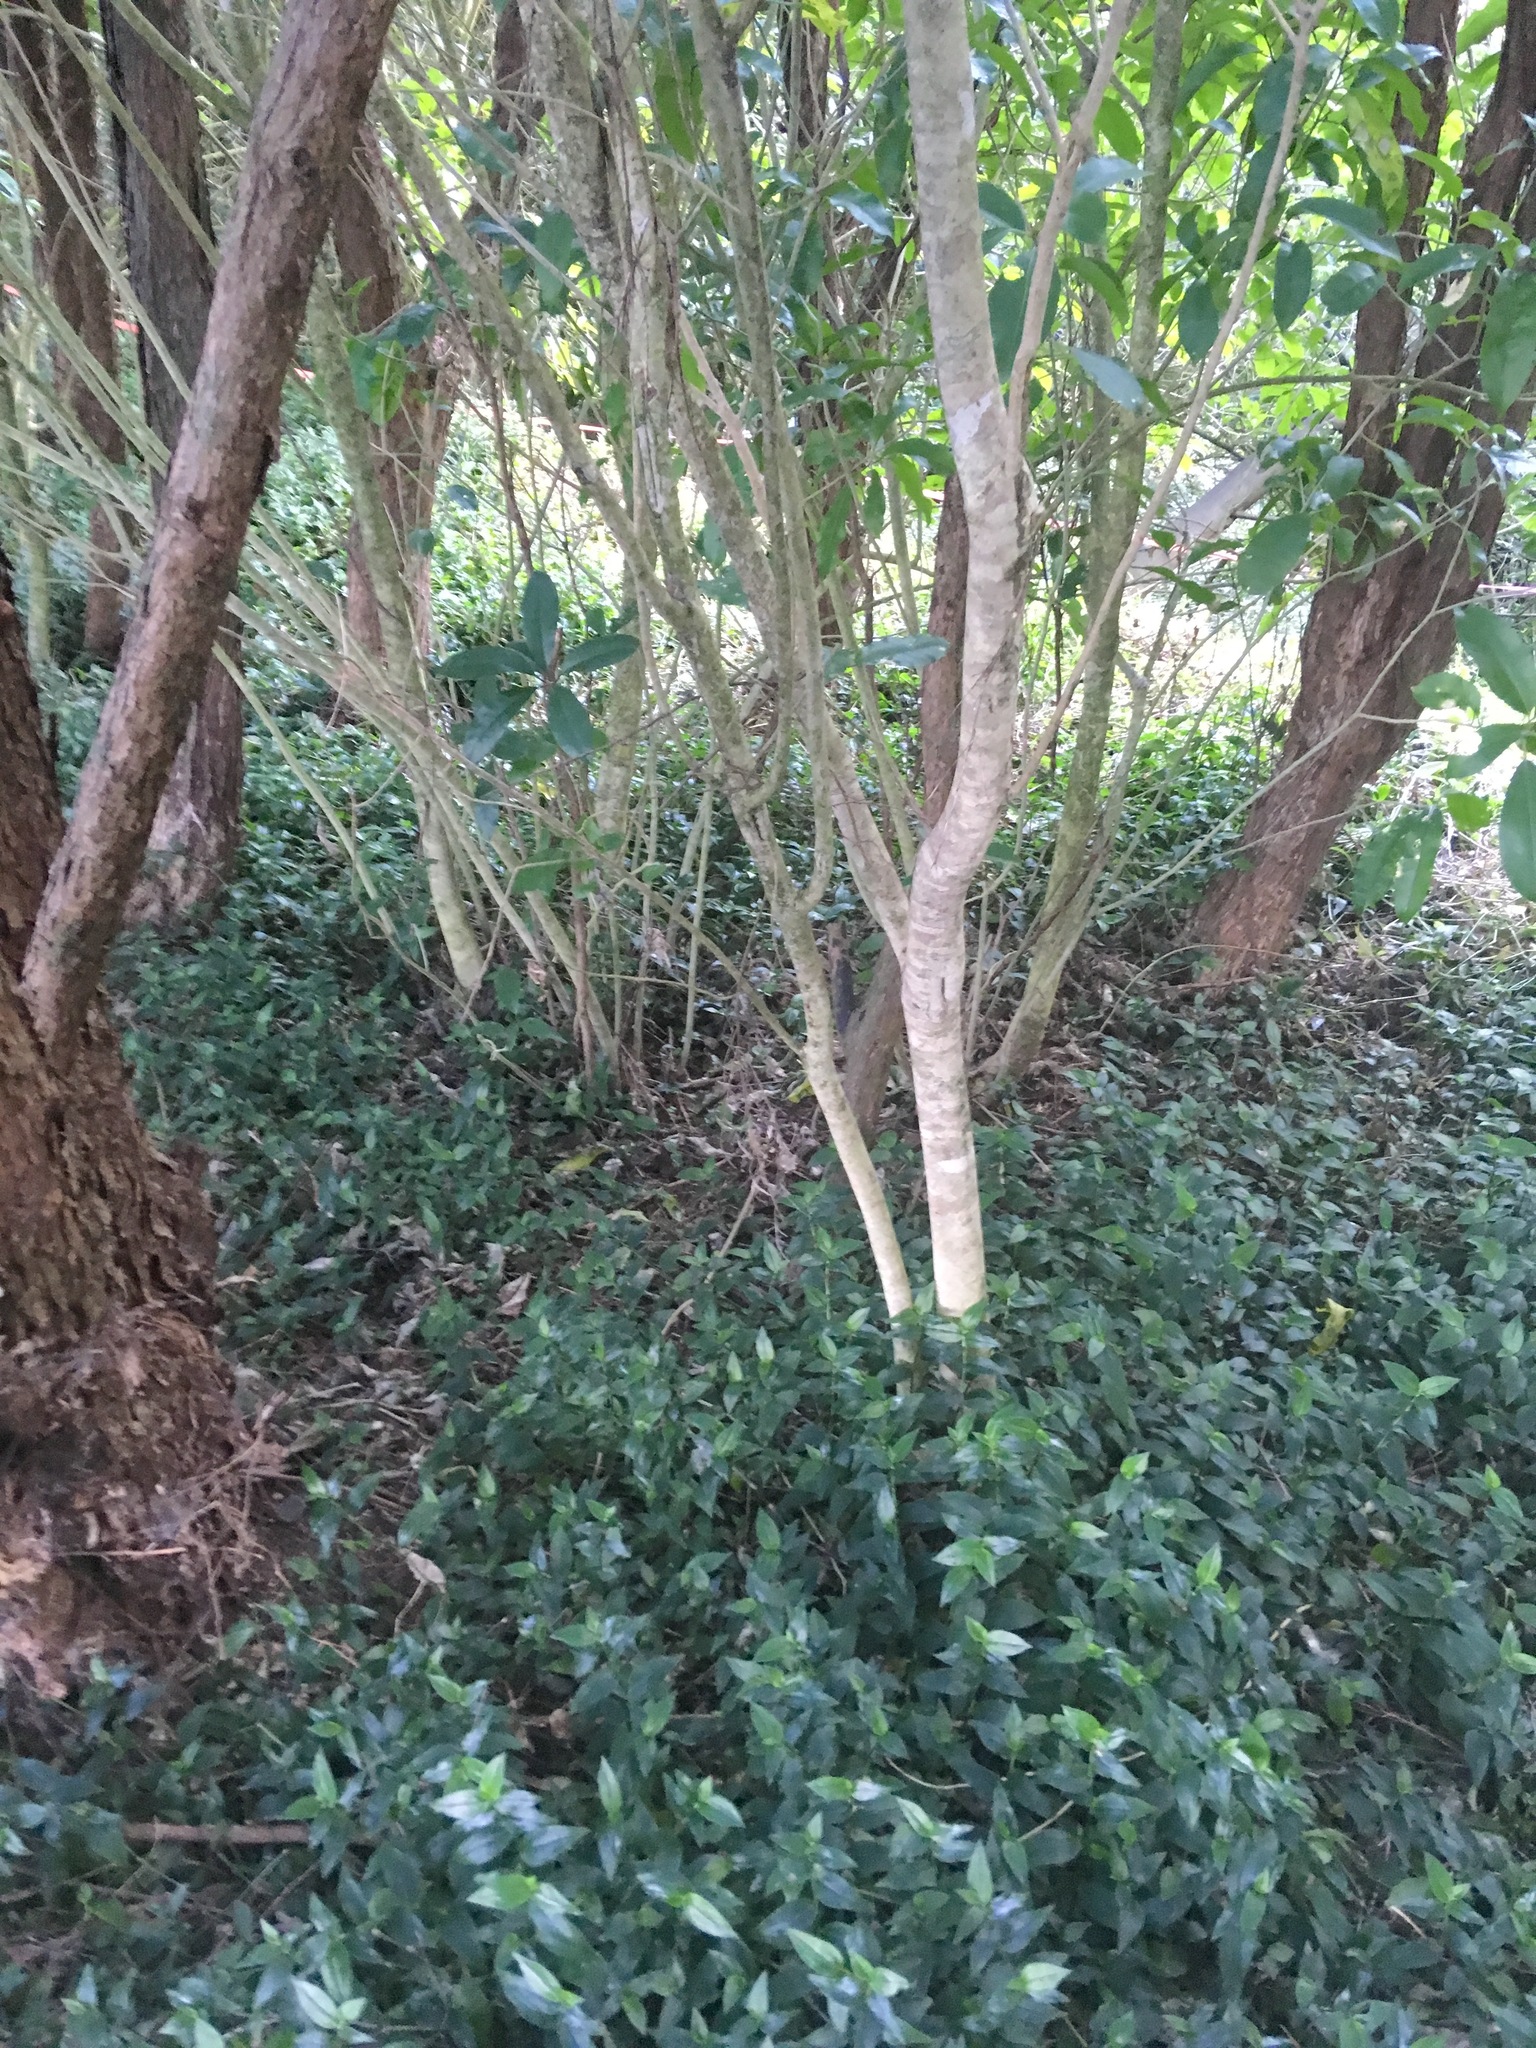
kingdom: Plantae
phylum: Tracheophyta
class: Liliopsida
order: Commelinales
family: Commelinaceae
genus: Tradescantia
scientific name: Tradescantia fluminensis
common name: Wandering-jew
